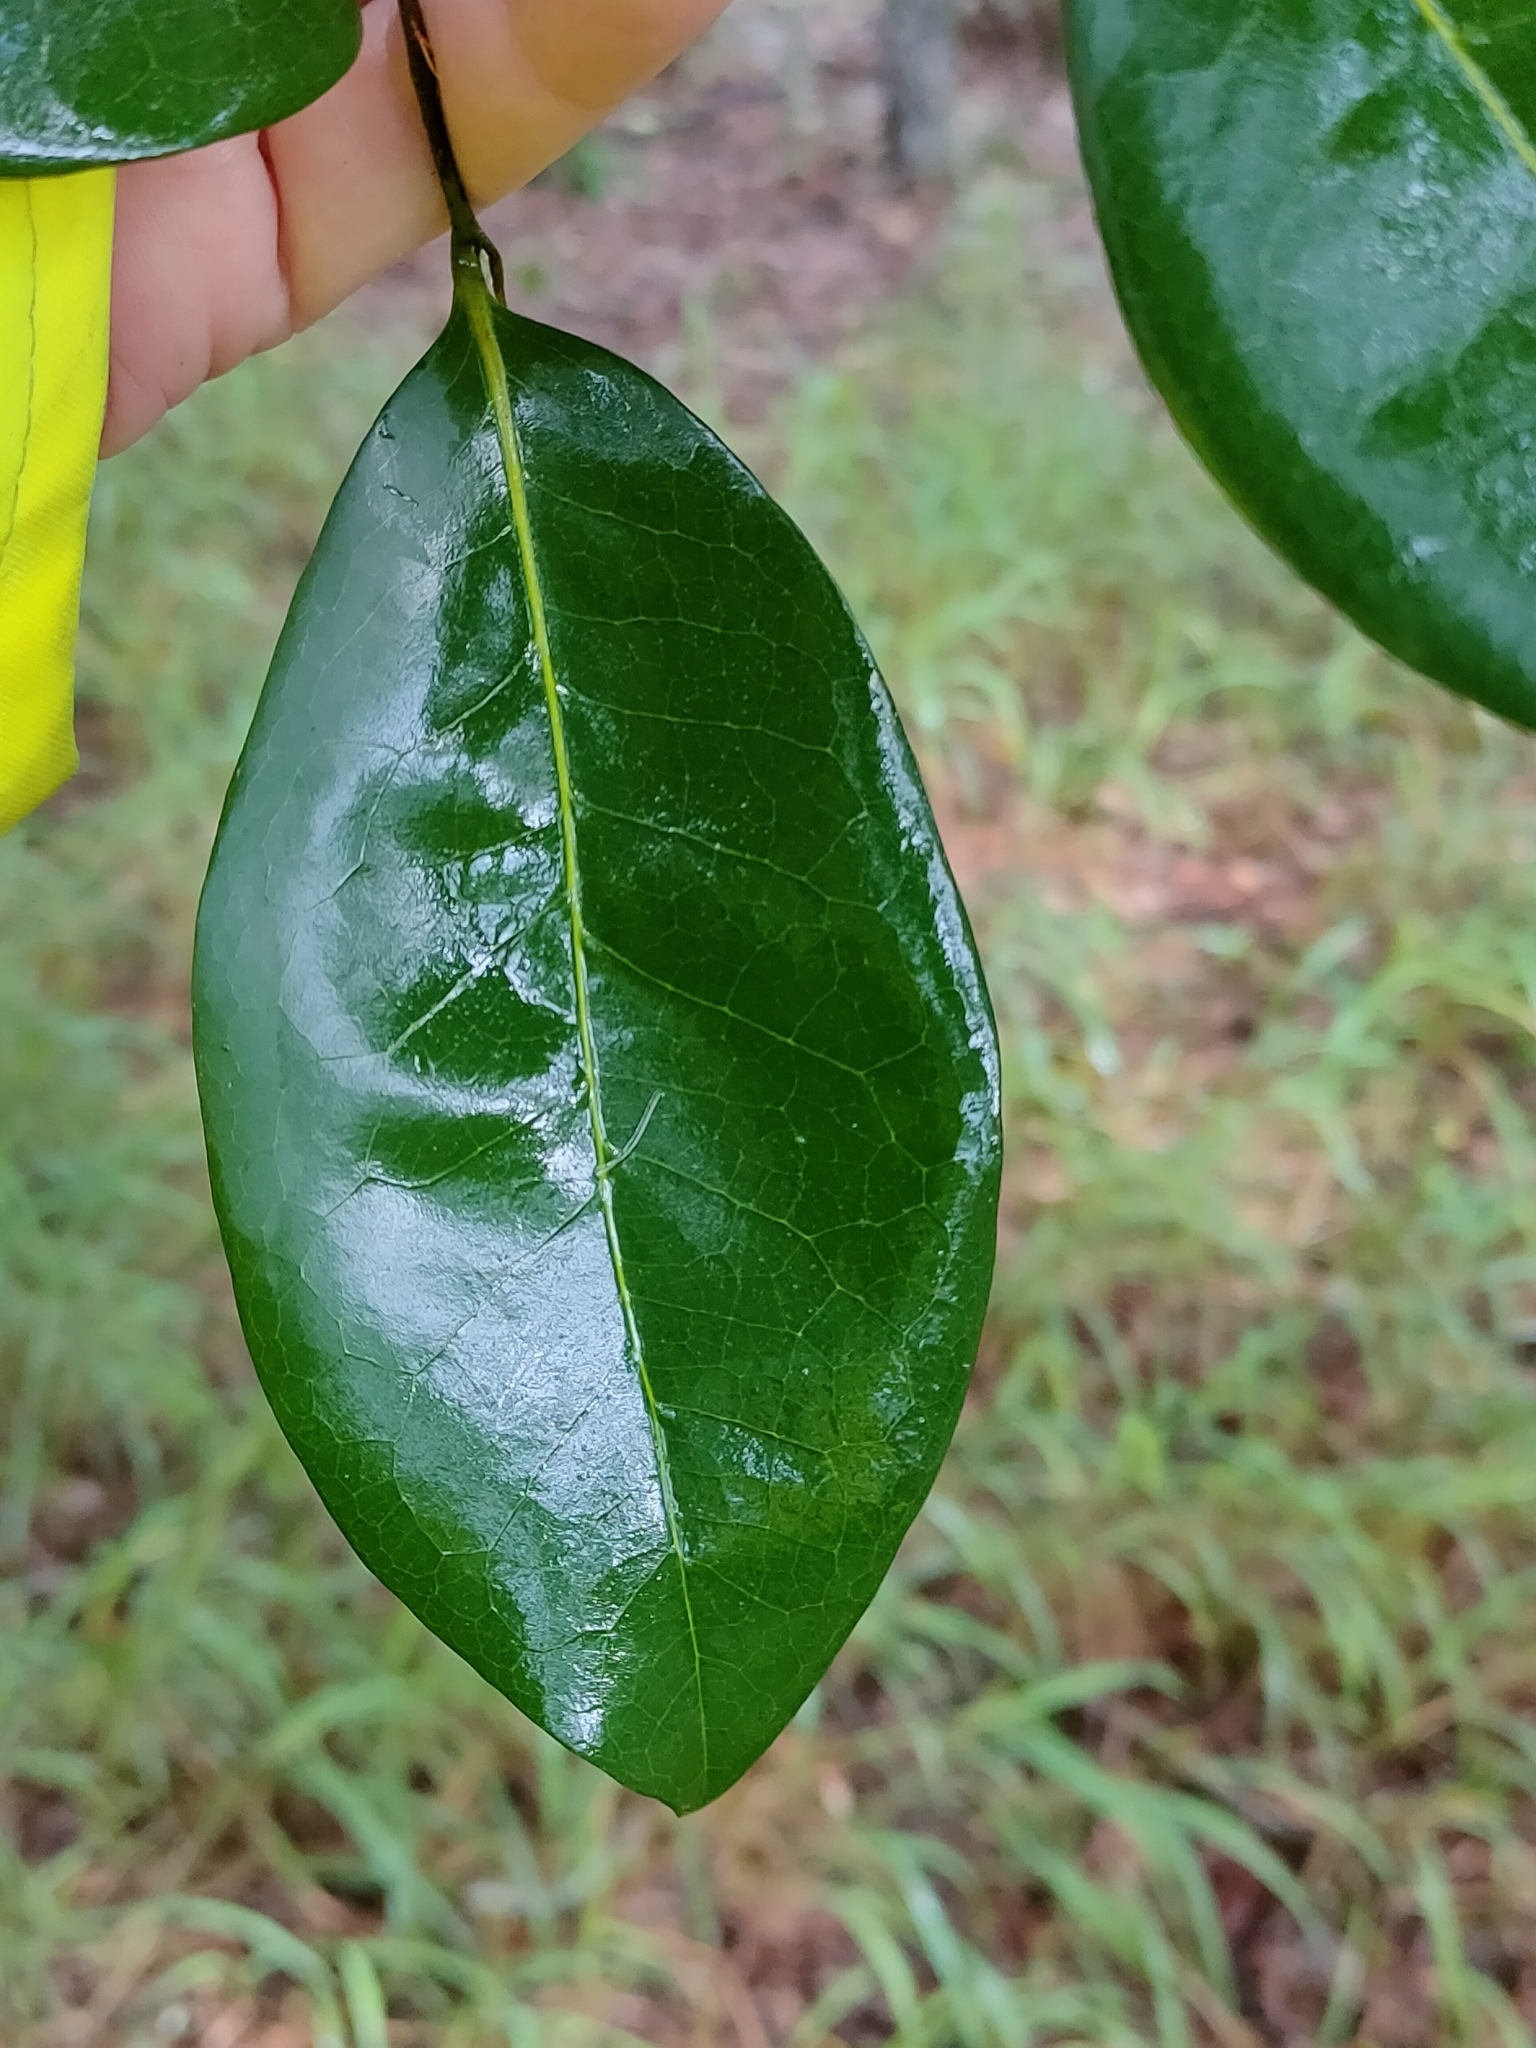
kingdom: Plantae
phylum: Tracheophyta
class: Magnoliopsida
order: Magnoliales
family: Annonaceae
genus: Hubera
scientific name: Hubera nitidissima
